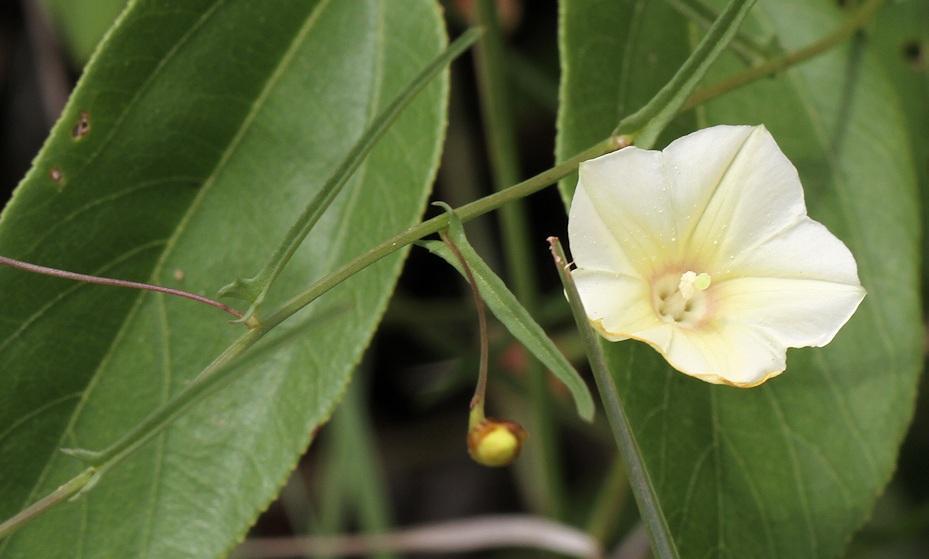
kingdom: Plantae
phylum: Tracheophyta
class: Magnoliopsida
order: Solanales
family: Convolvulaceae
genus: Xenostegia
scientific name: Xenostegia tridentata
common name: African morningvine
